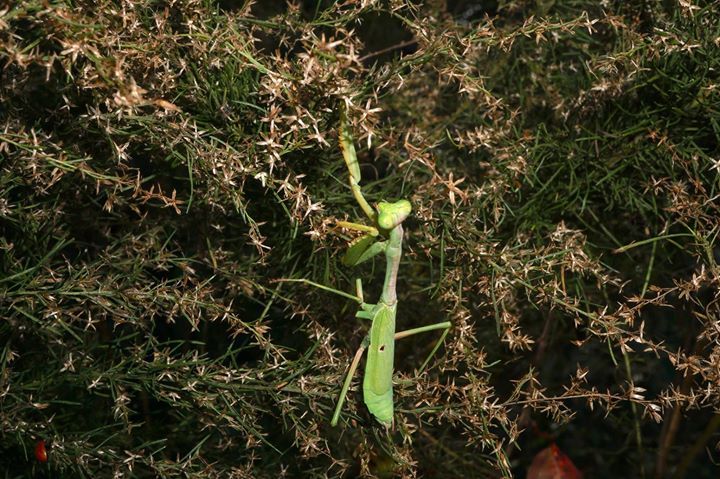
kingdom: Animalia
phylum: Arthropoda
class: Insecta
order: Mantodea
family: Mantidae
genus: Stagmomantis
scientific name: Stagmomantis carolina
